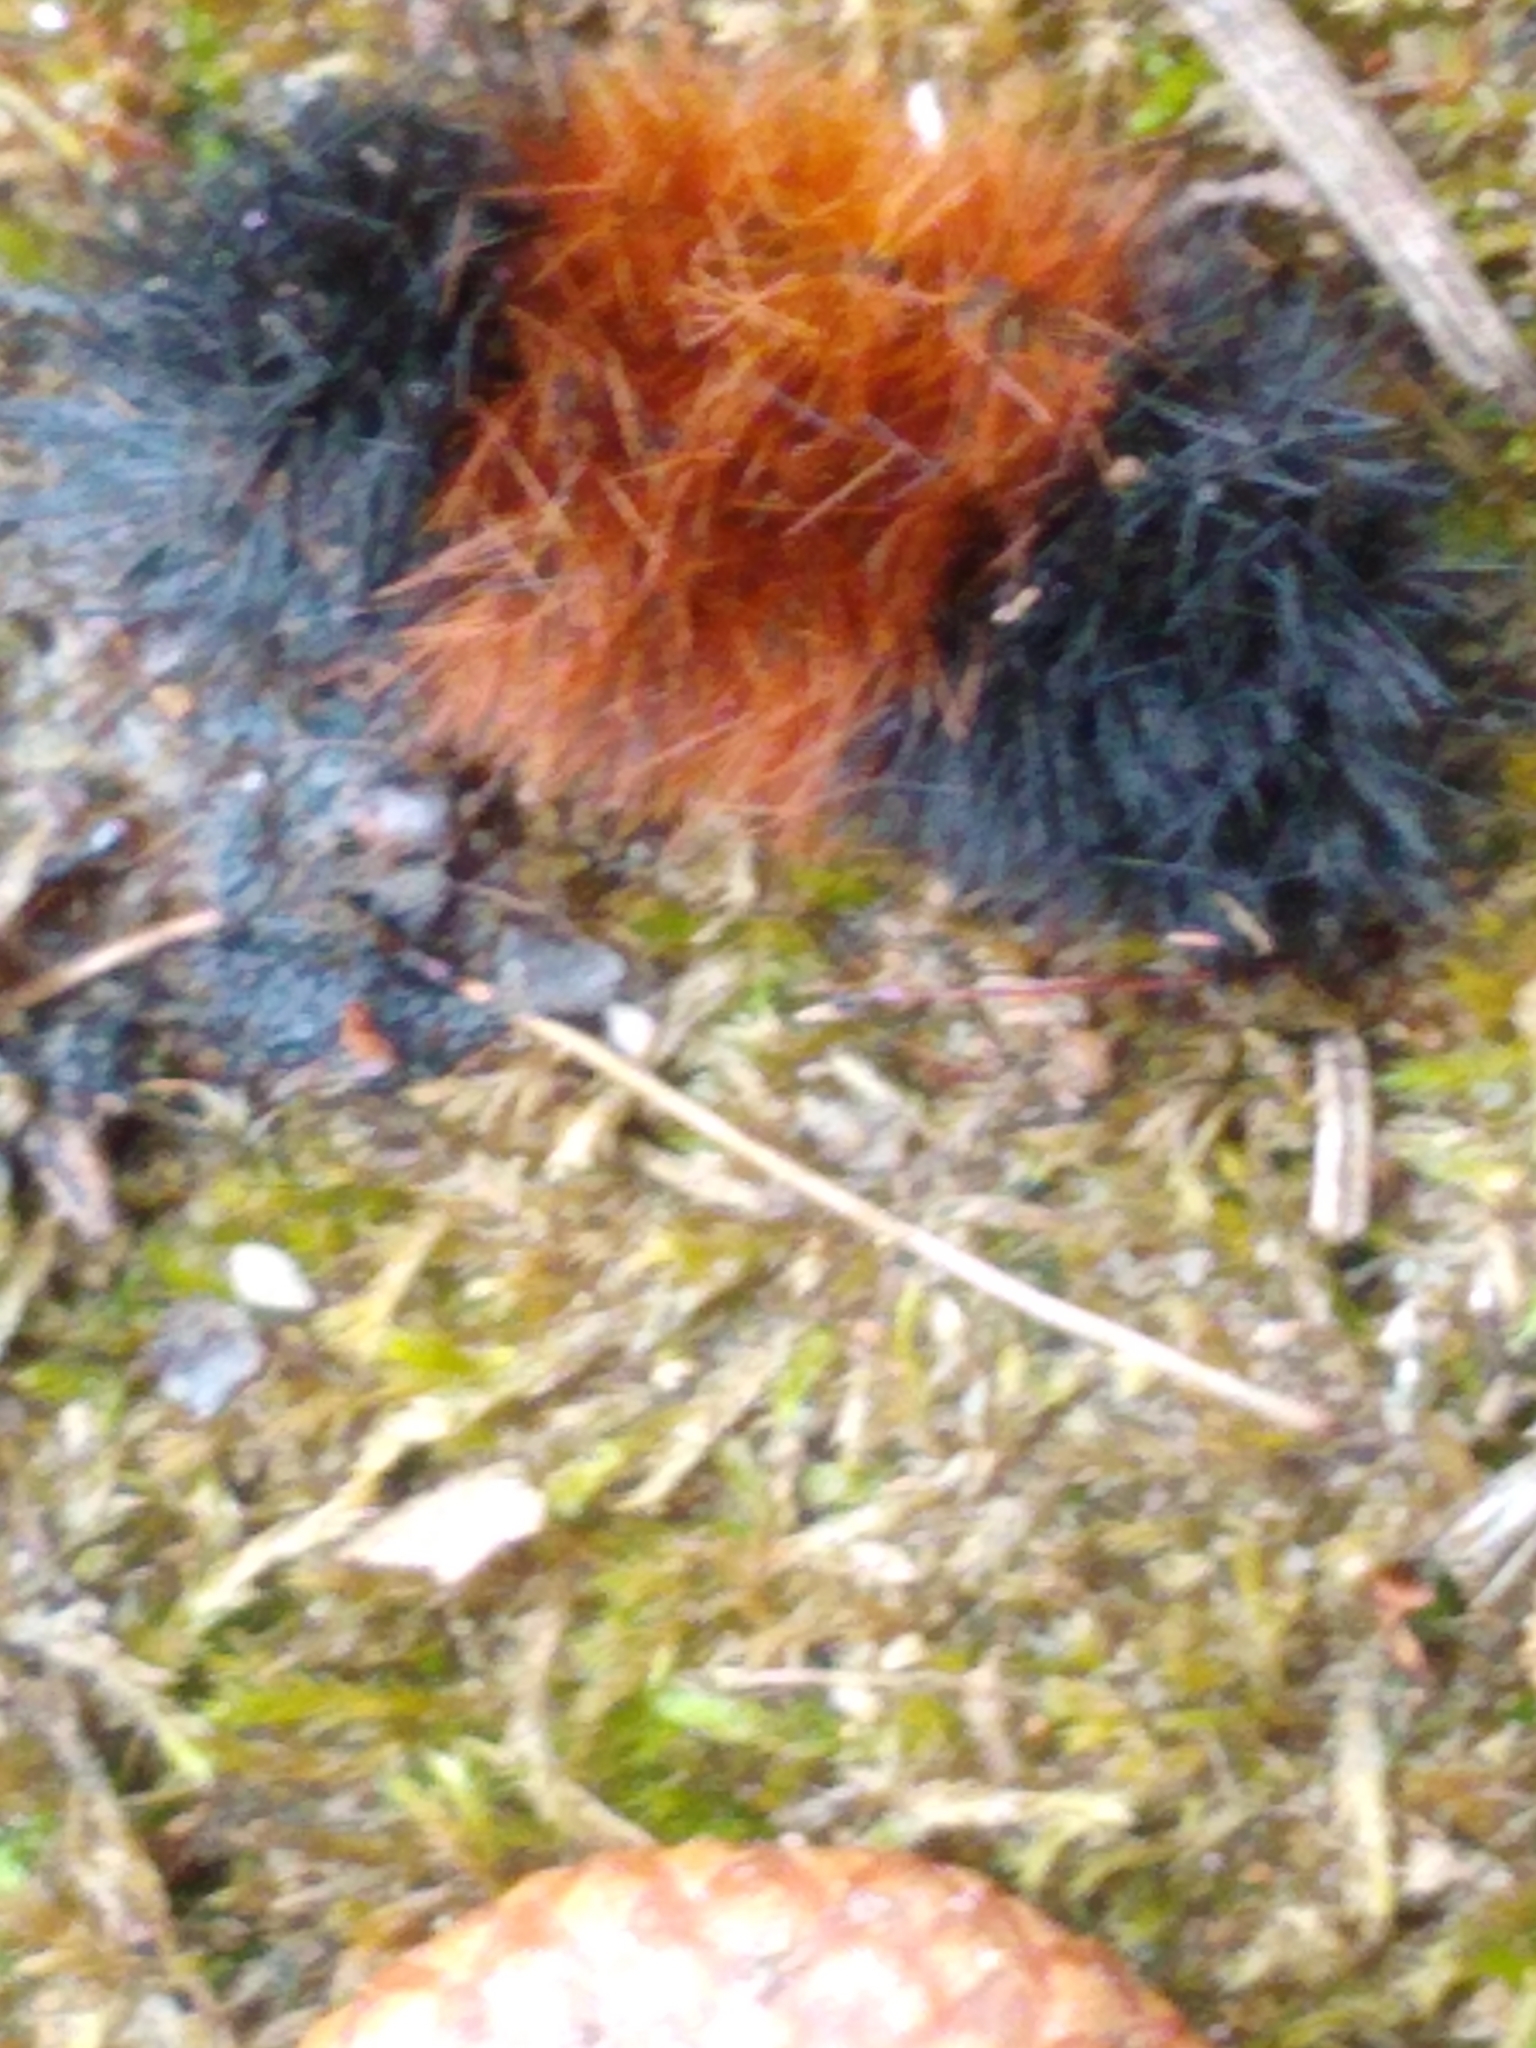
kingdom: Animalia
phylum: Arthropoda
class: Insecta
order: Lepidoptera
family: Erebidae
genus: Pyrrharctia
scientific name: Pyrrharctia isabella
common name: Isabella tiger moth
